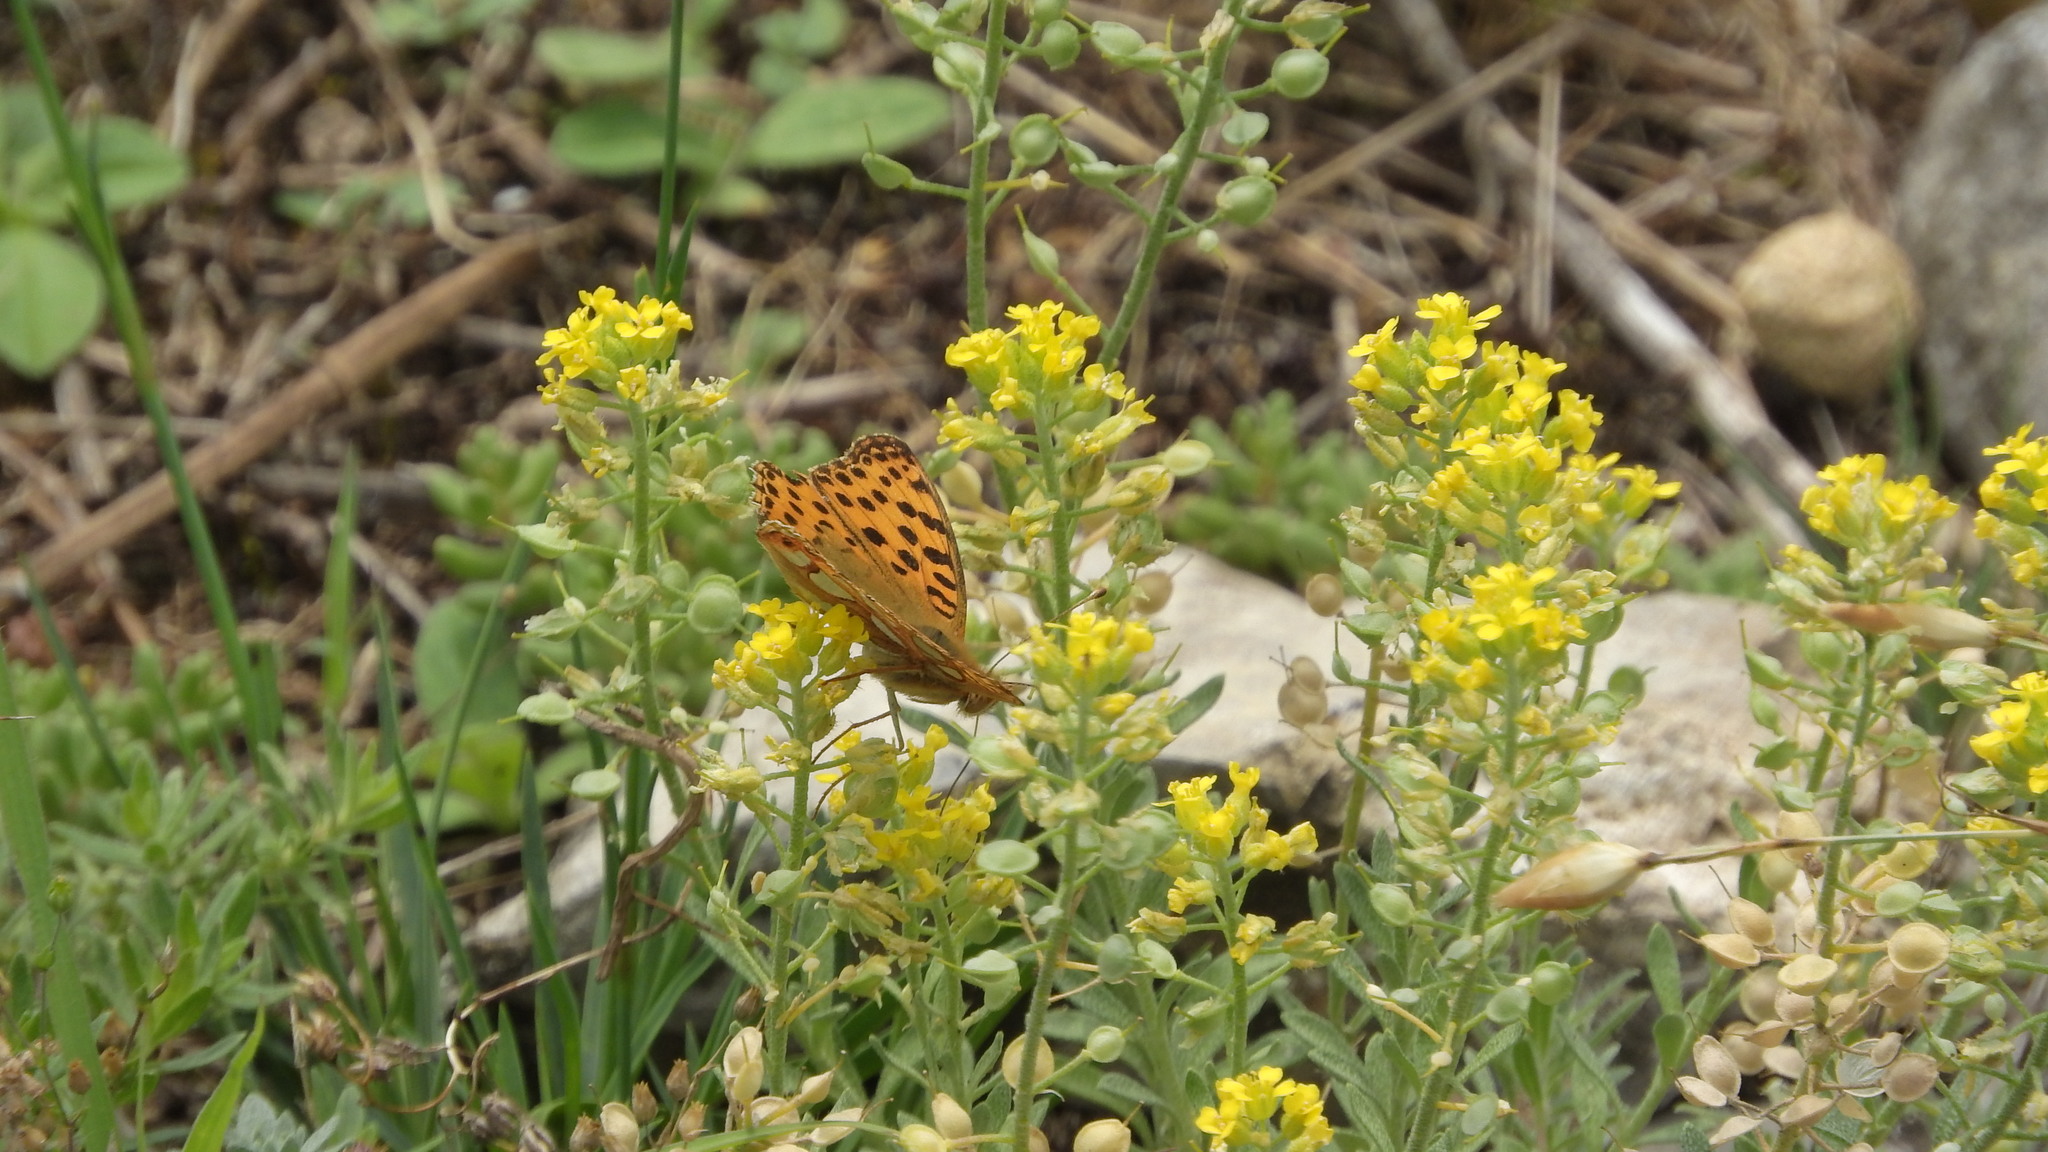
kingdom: Animalia
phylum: Arthropoda
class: Insecta
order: Lepidoptera
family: Nymphalidae
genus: Issoria
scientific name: Issoria lathonia
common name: Queen of spain fritillary
